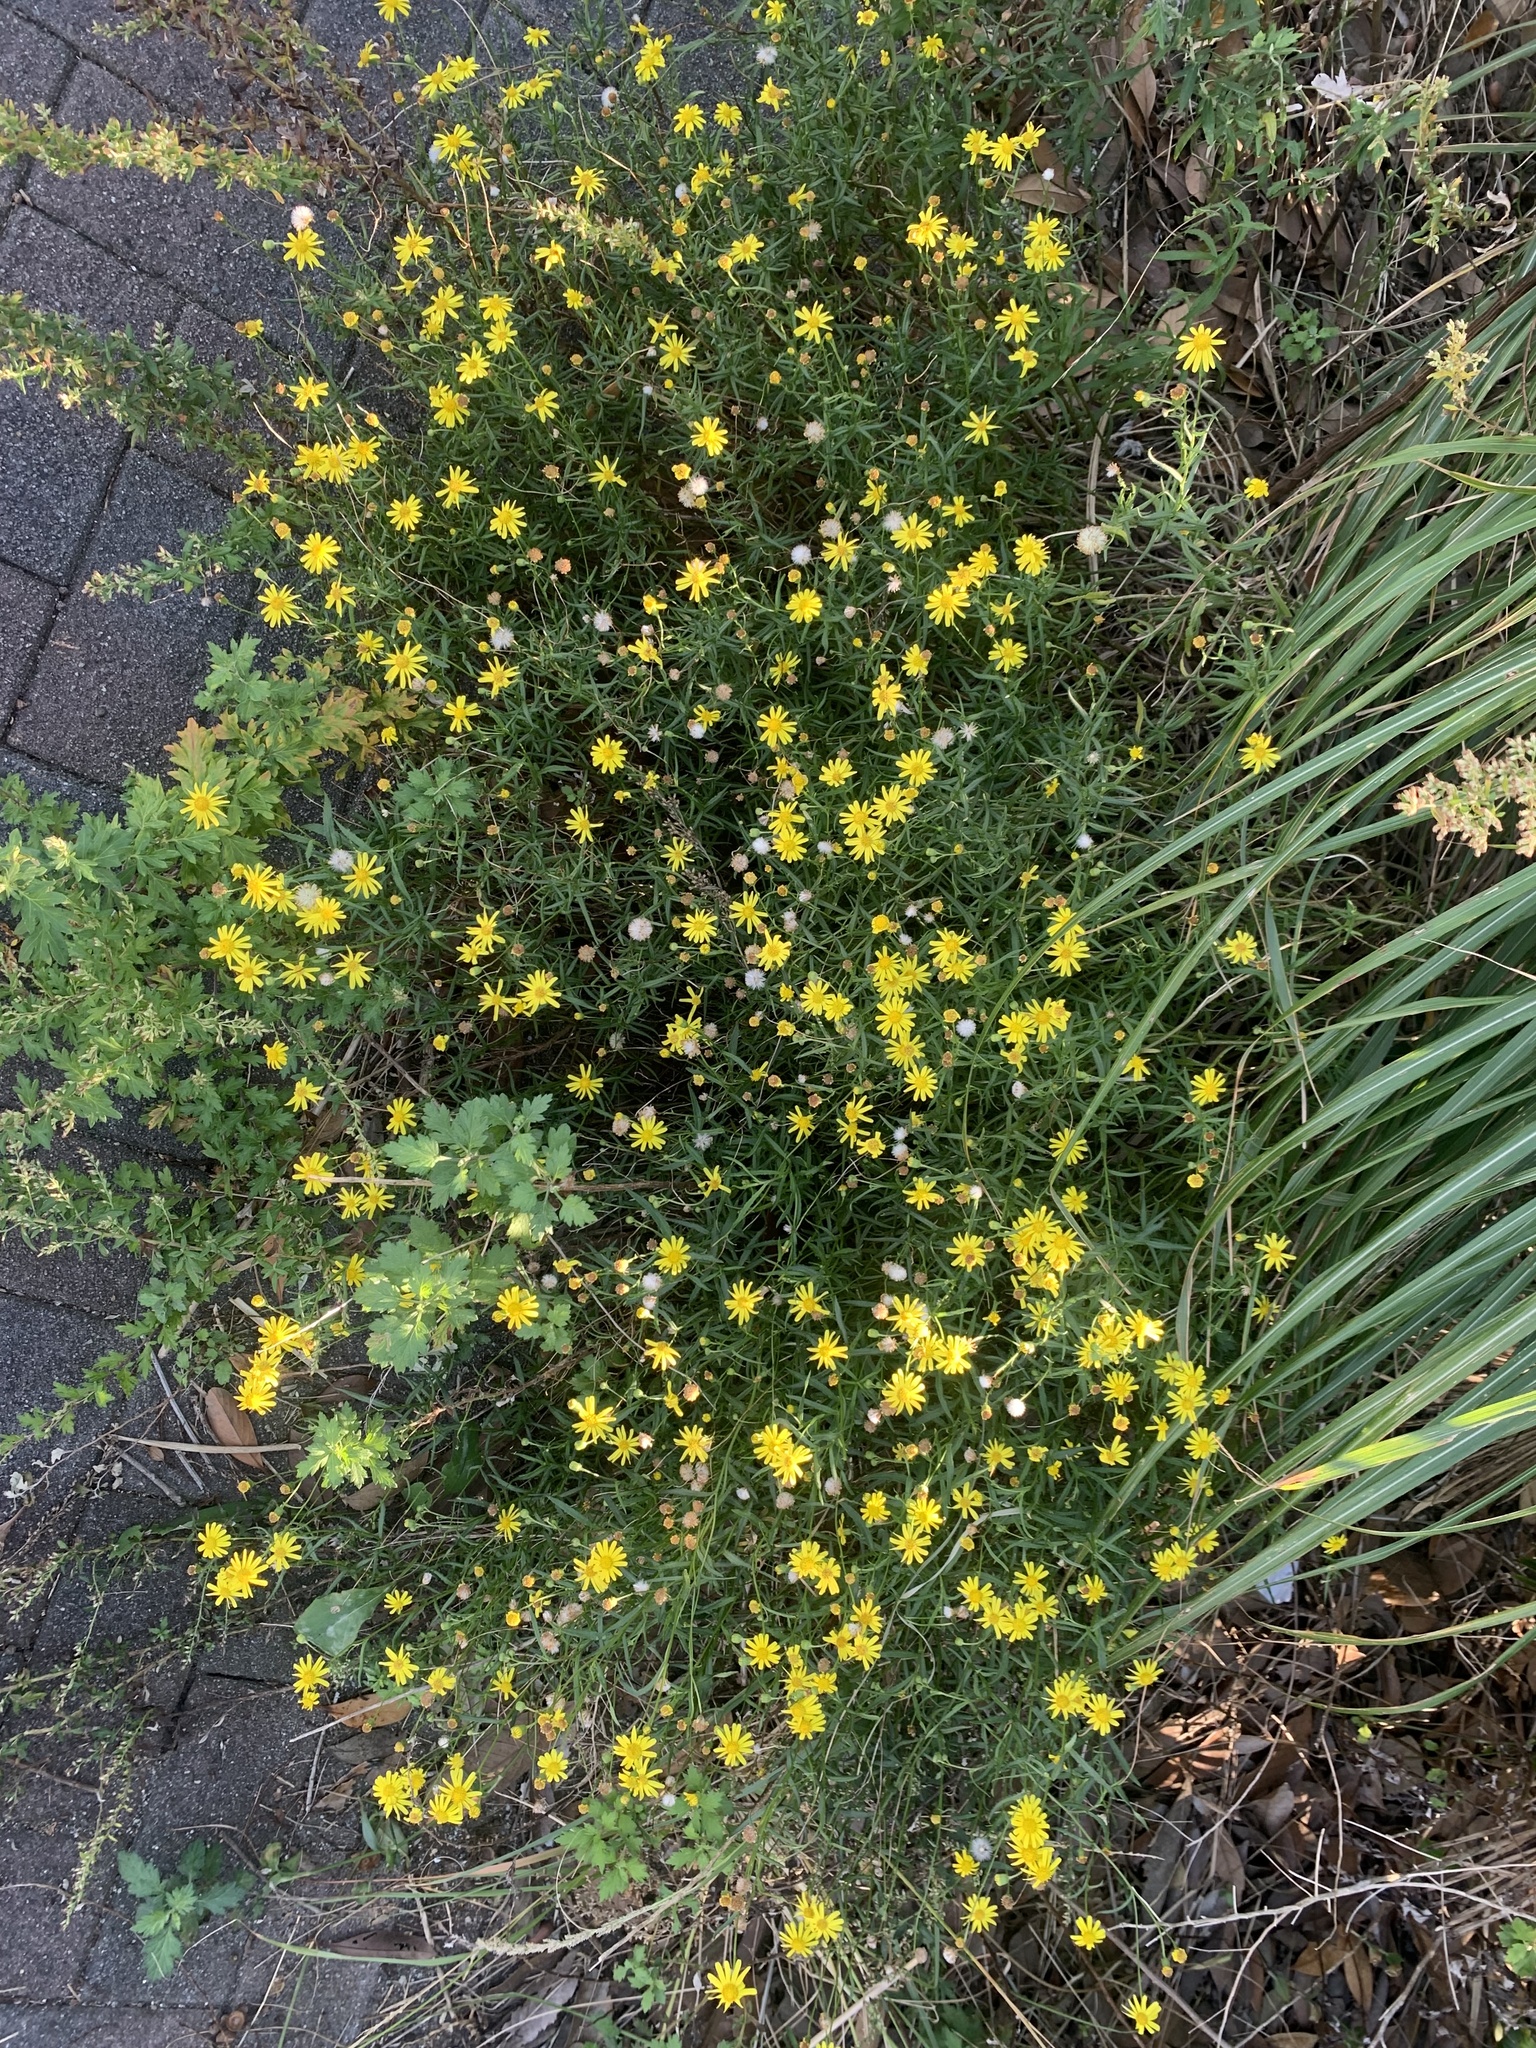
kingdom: Plantae
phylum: Tracheophyta
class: Magnoliopsida
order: Asterales
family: Asteraceae
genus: Senecio
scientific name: Senecio madagascariensis
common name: Madagascar ragwort
